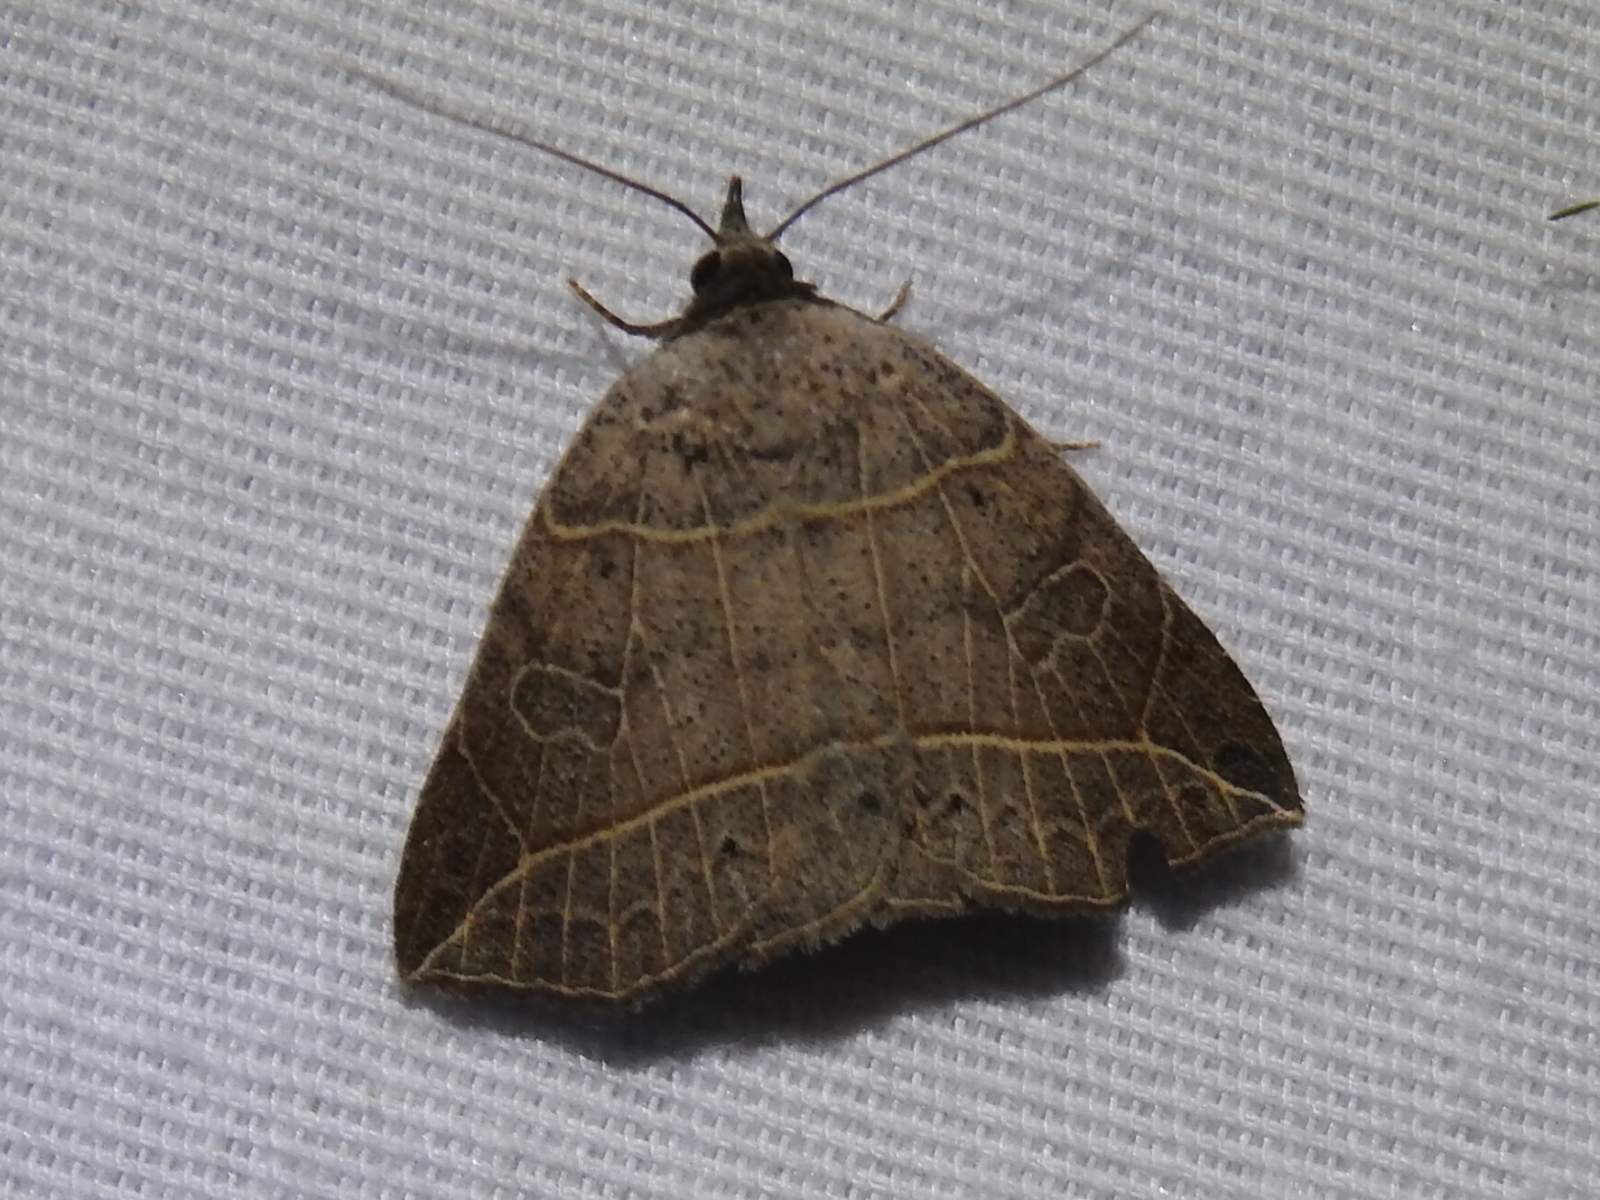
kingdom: Animalia
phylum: Arthropoda
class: Insecta
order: Lepidoptera
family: Erebidae
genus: Isogona
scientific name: Isogona tenuis
